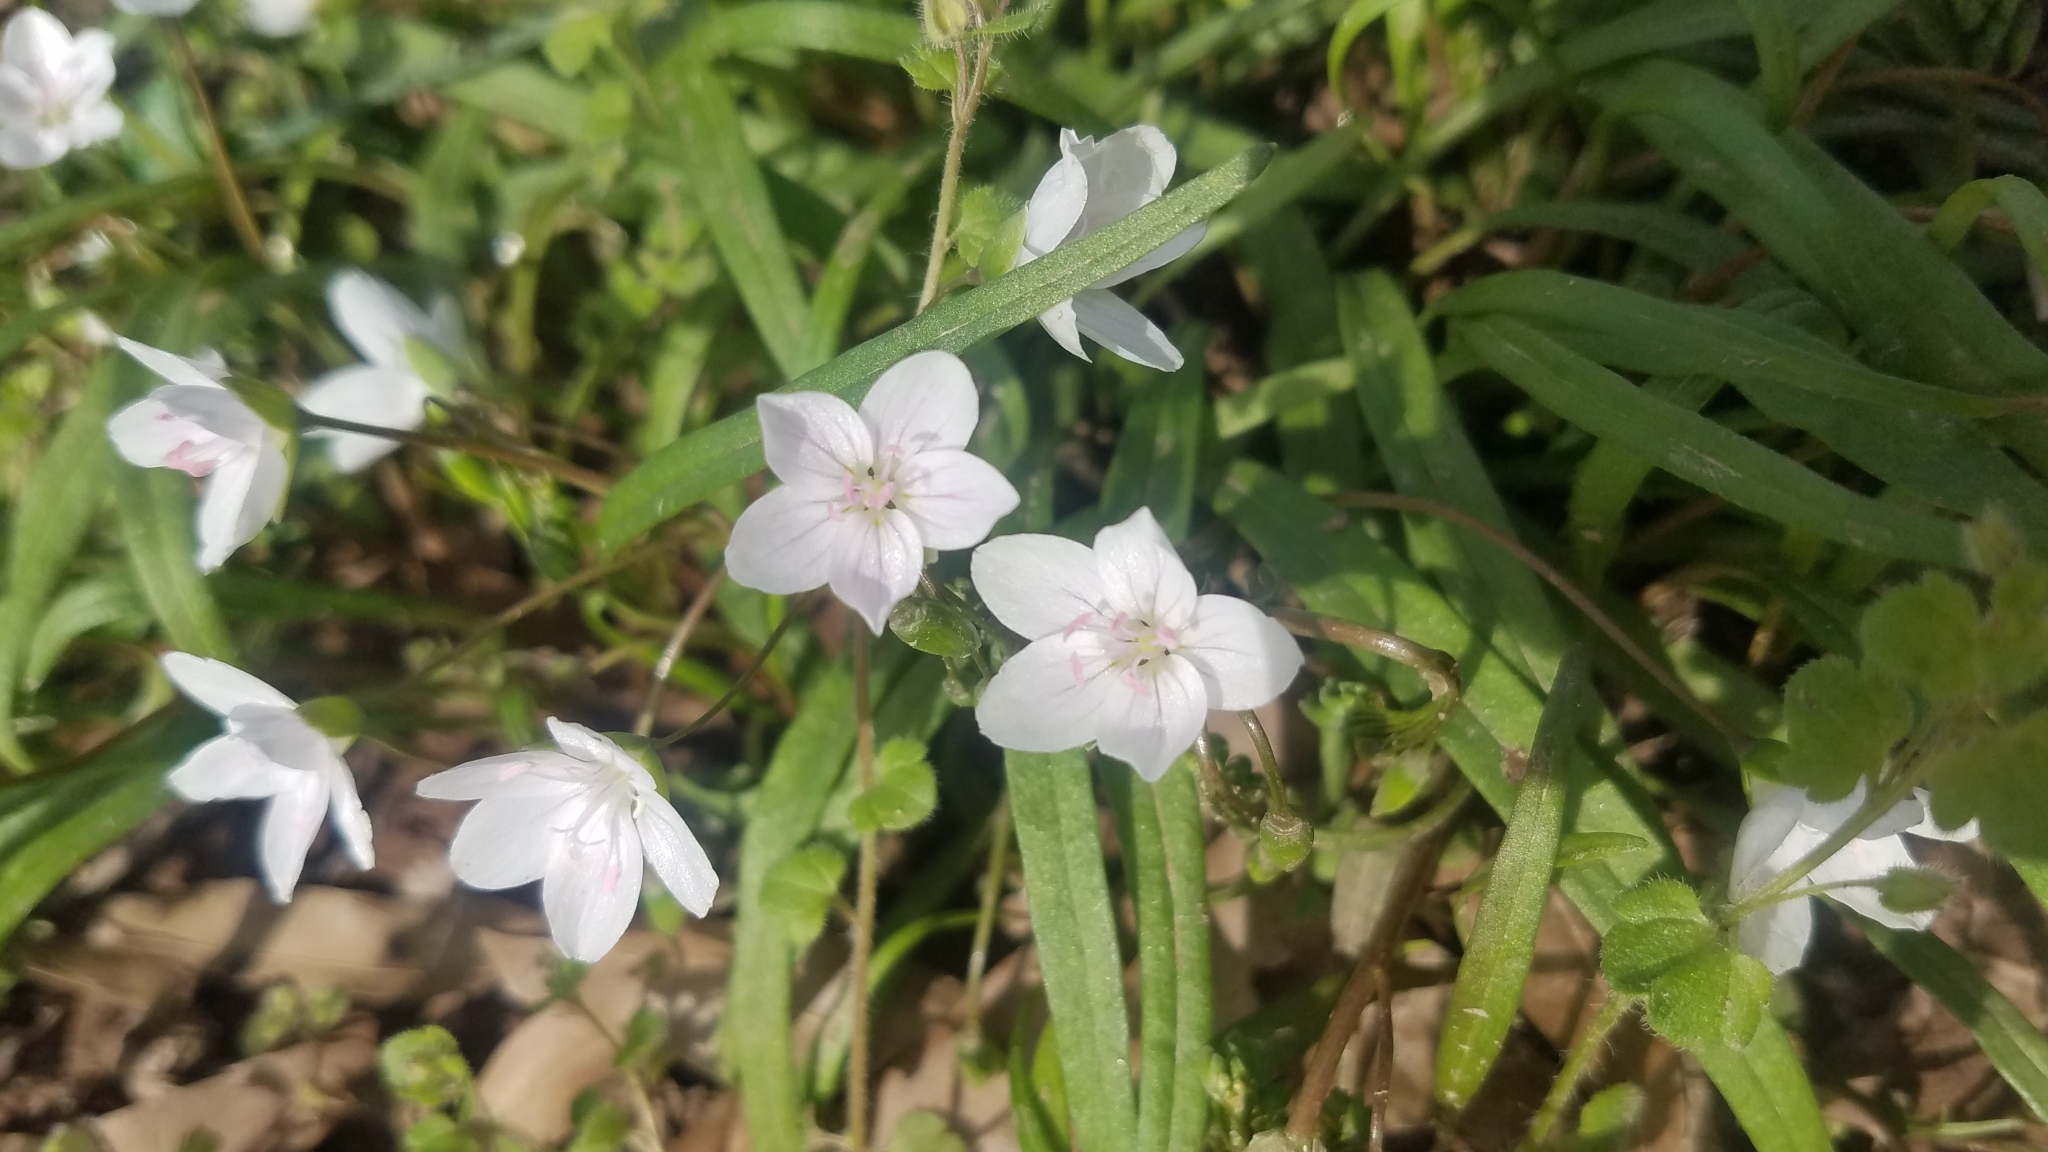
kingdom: Plantae
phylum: Tracheophyta
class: Magnoliopsida
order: Caryophyllales
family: Montiaceae
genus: Claytonia
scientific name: Claytonia virginica
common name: Virginia springbeauty
